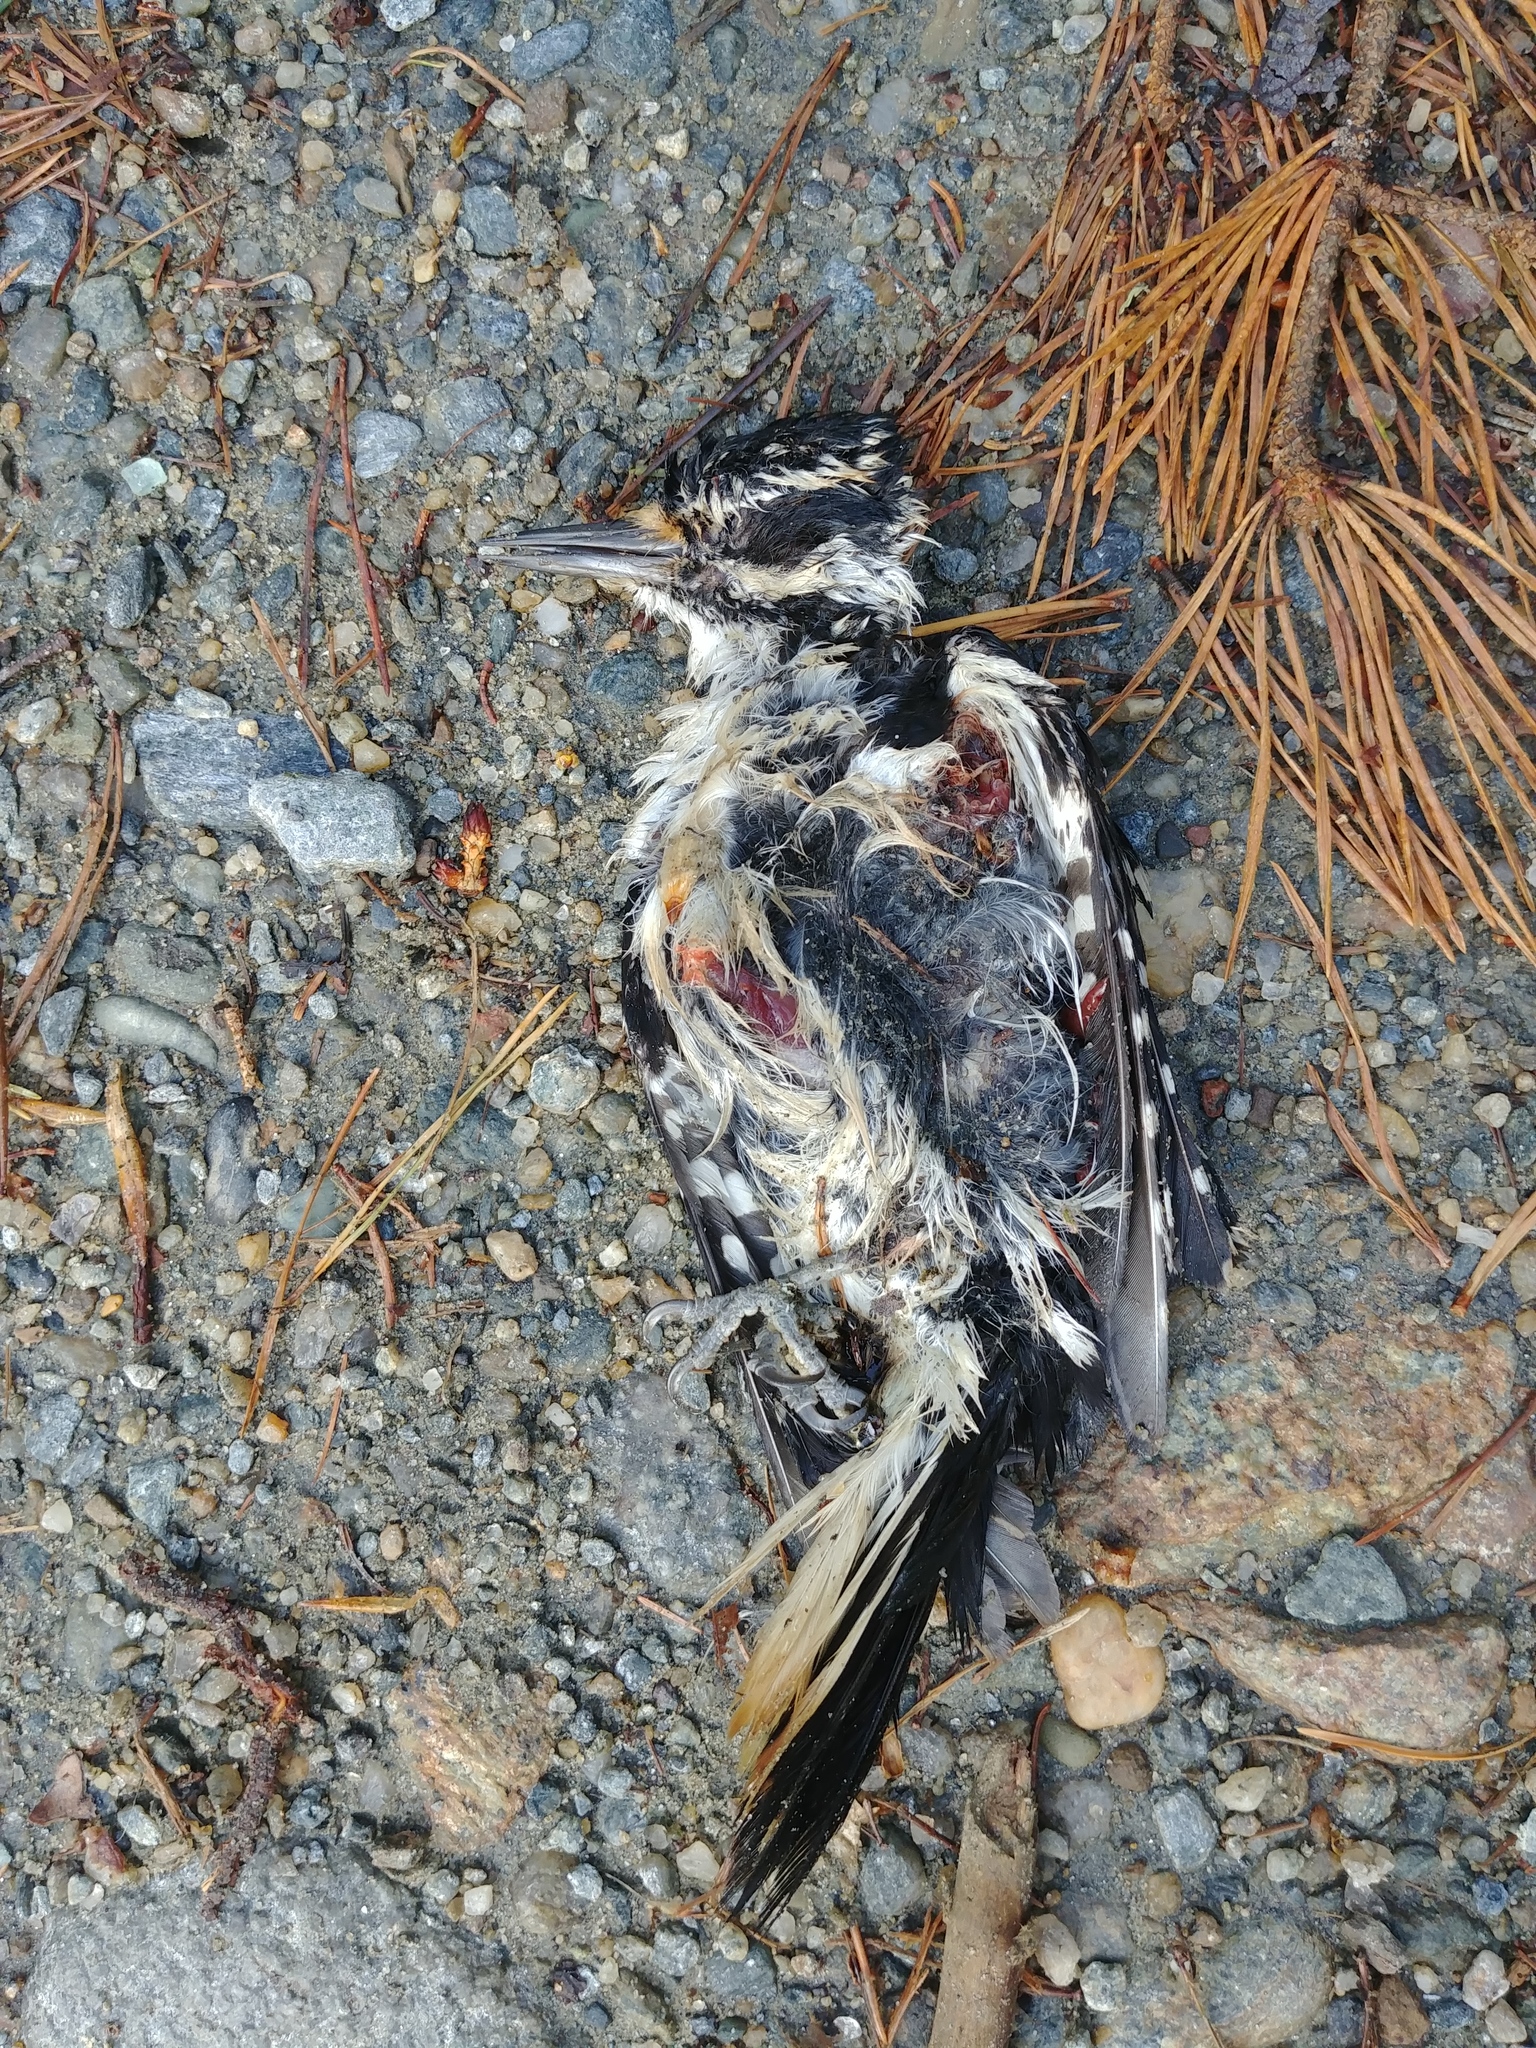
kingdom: Animalia
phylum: Chordata
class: Aves
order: Piciformes
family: Picidae
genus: Leuconotopicus
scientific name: Leuconotopicus villosus
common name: Hairy woodpecker
